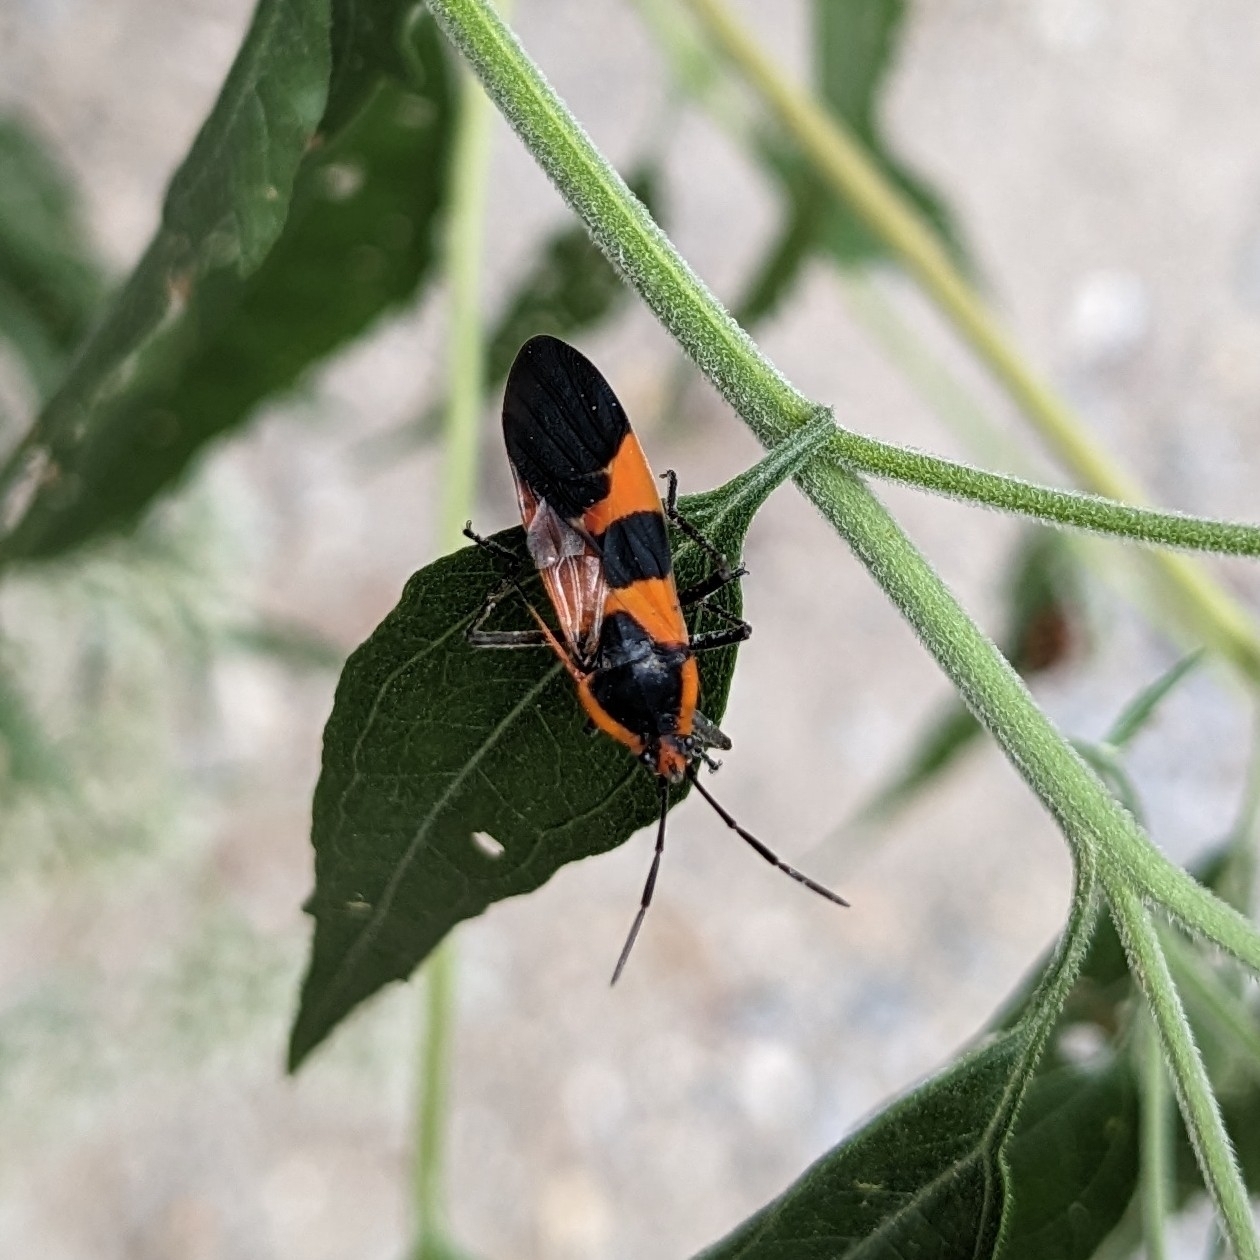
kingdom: Animalia
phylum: Arthropoda
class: Insecta
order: Hemiptera
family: Lygaeidae
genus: Oncopeltus
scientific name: Oncopeltus fasciatus
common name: Large milkweed bug
